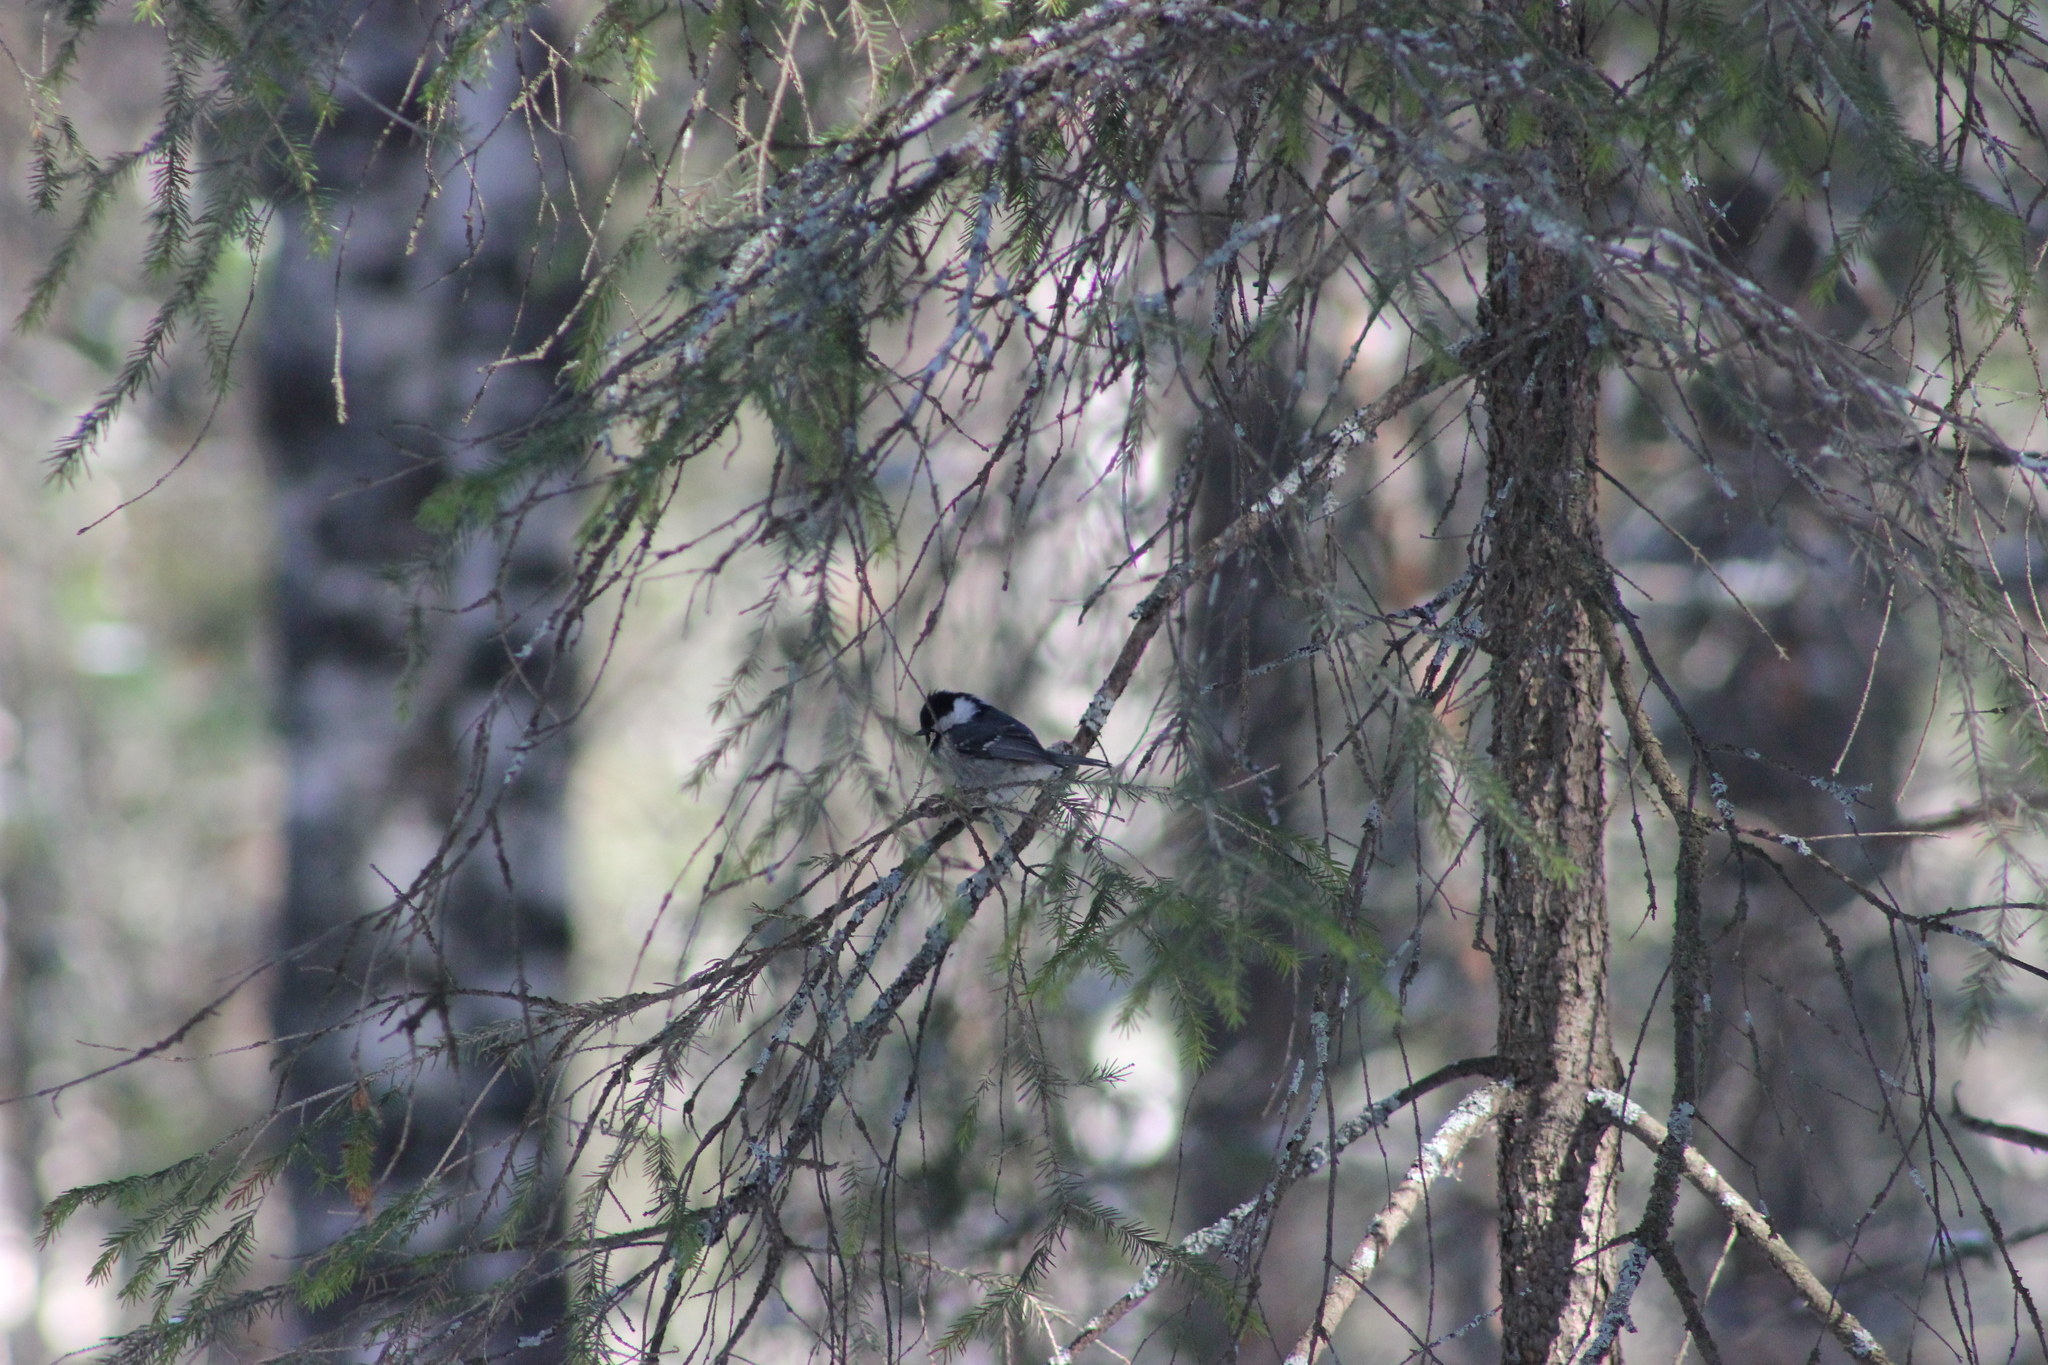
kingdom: Animalia
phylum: Chordata
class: Aves
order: Passeriformes
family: Paridae
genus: Periparus
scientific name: Periparus ater
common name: Coal tit
